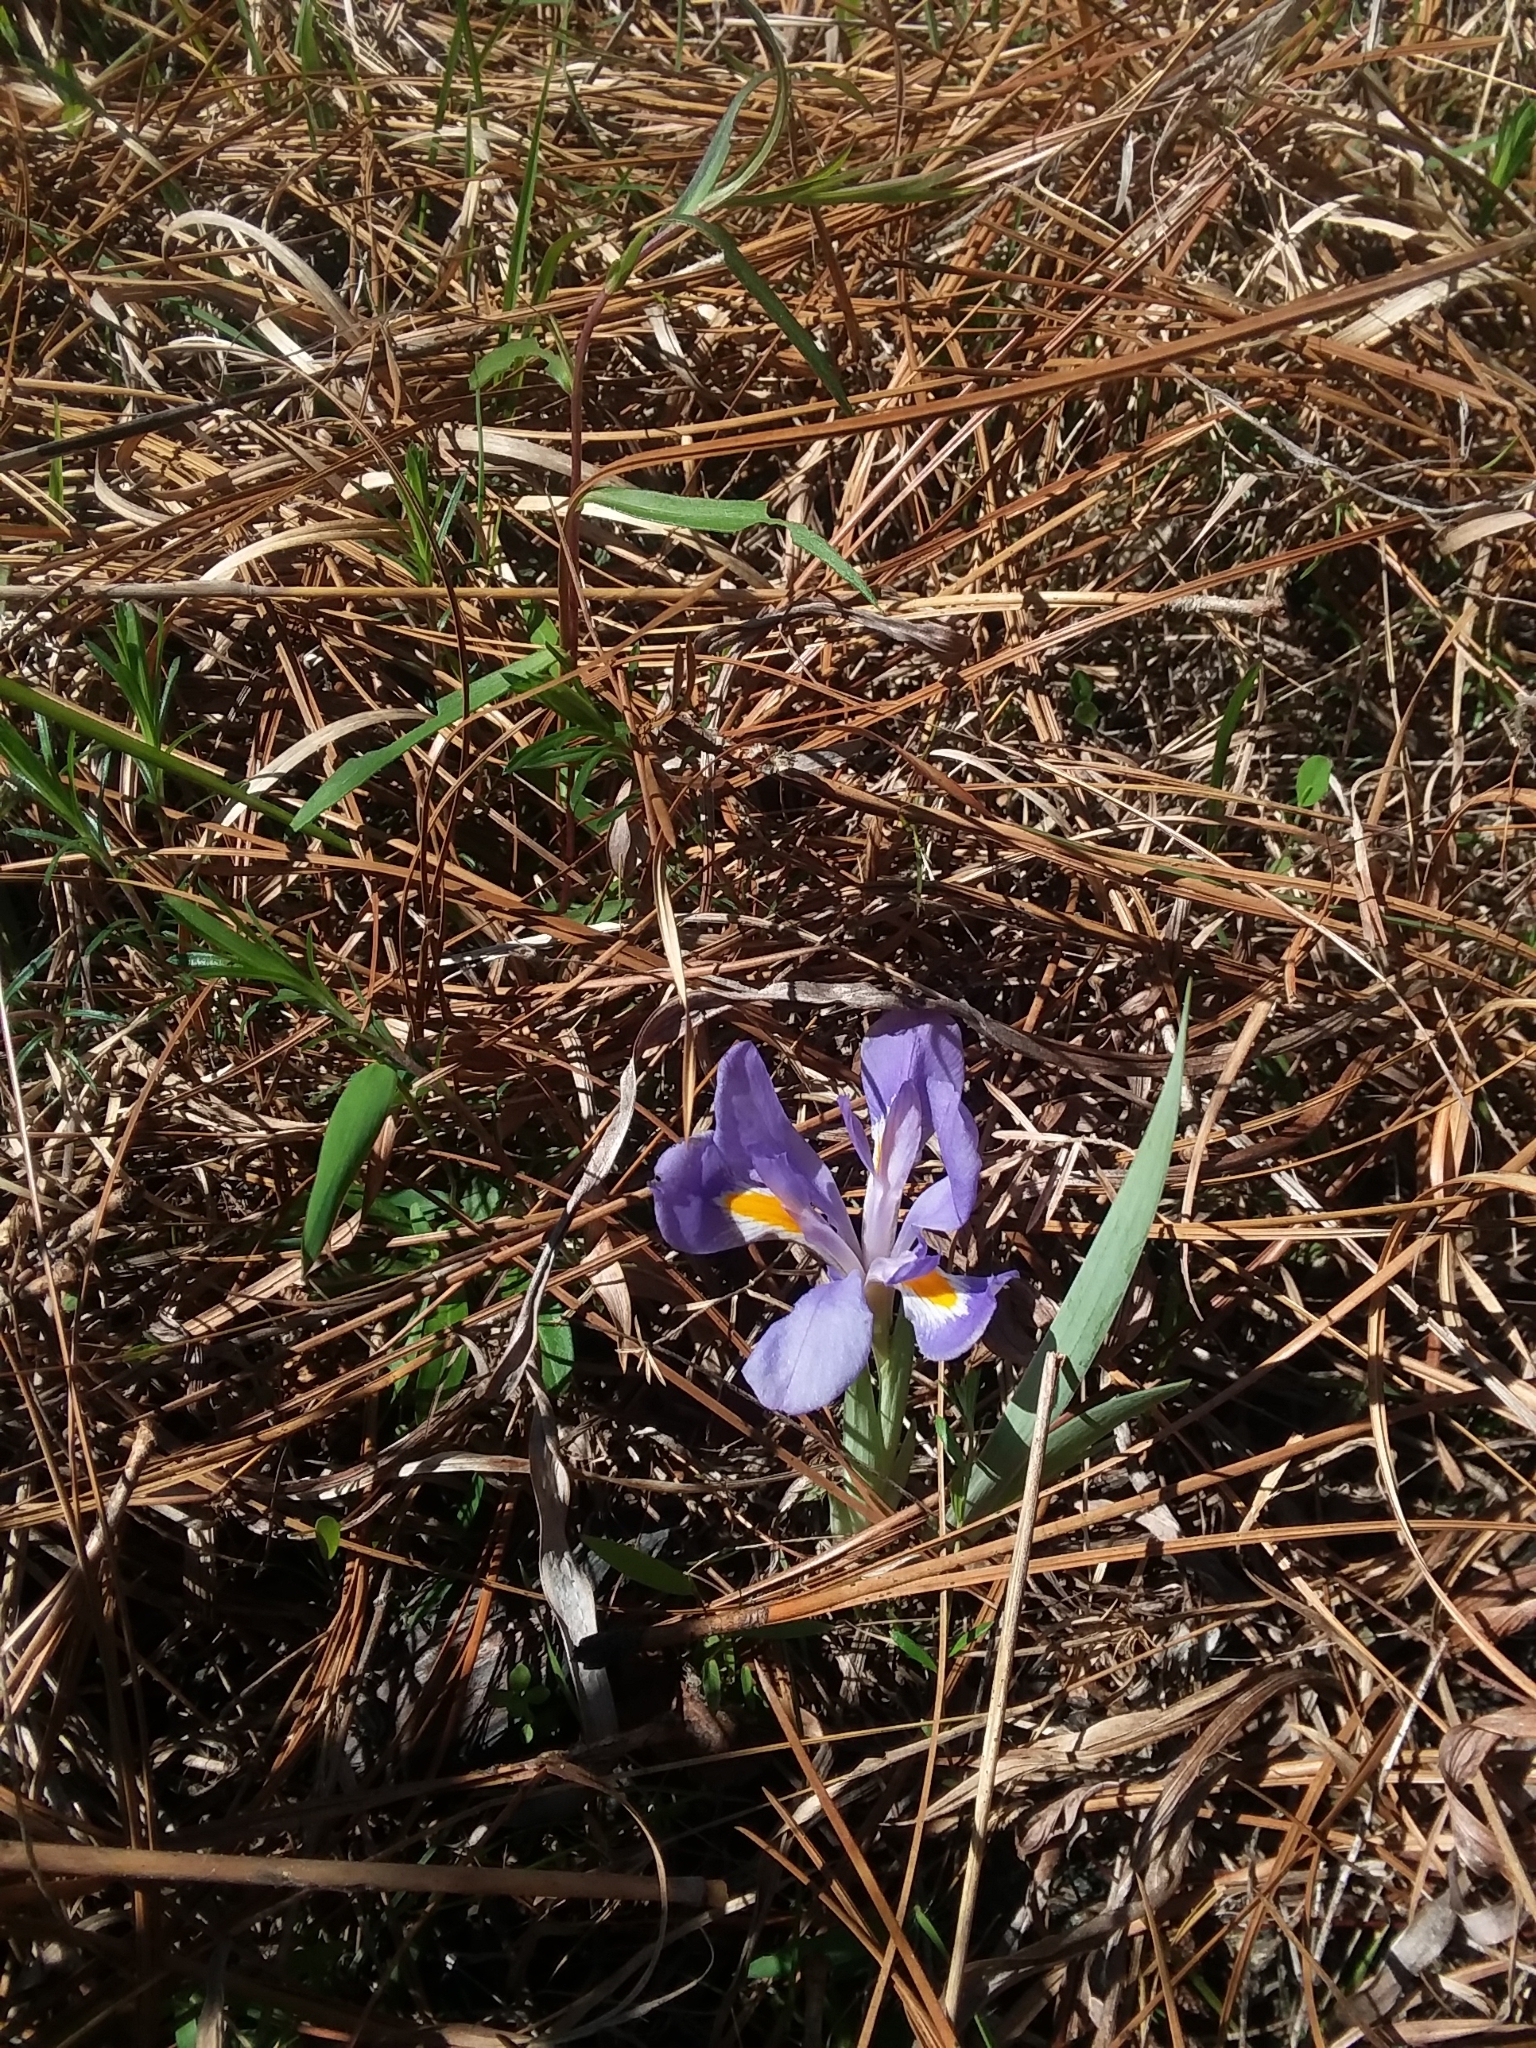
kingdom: Plantae
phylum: Tracheophyta
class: Liliopsida
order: Asparagales
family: Iridaceae
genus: Iris
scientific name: Iris verna
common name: Dwarf iris
